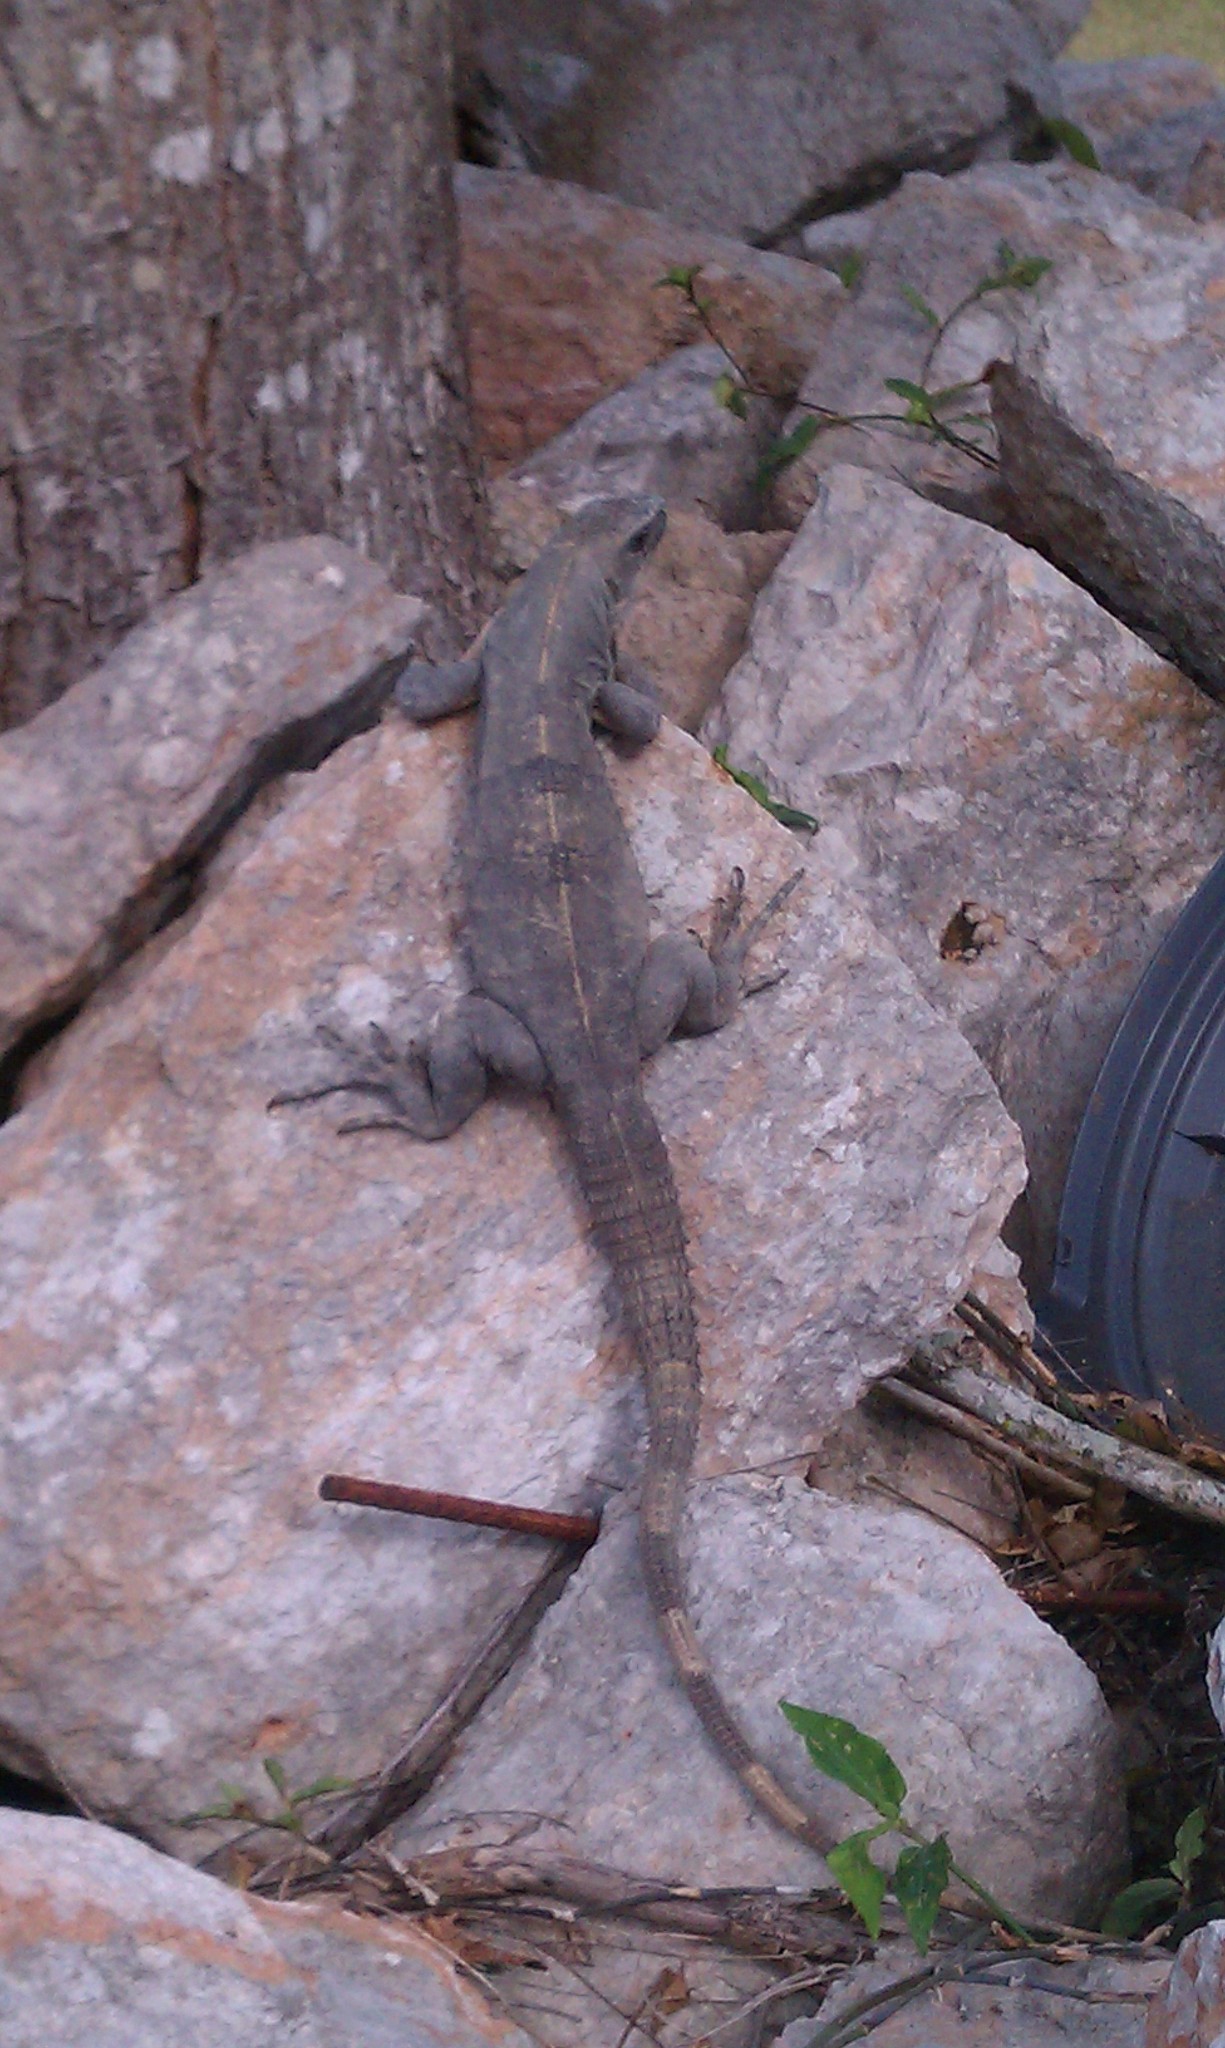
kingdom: Animalia
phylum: Chordata
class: Squamata
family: Iguanidae
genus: Ctenosaura
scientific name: Ctenosaura similis
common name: Black spiny-tailed iguana
